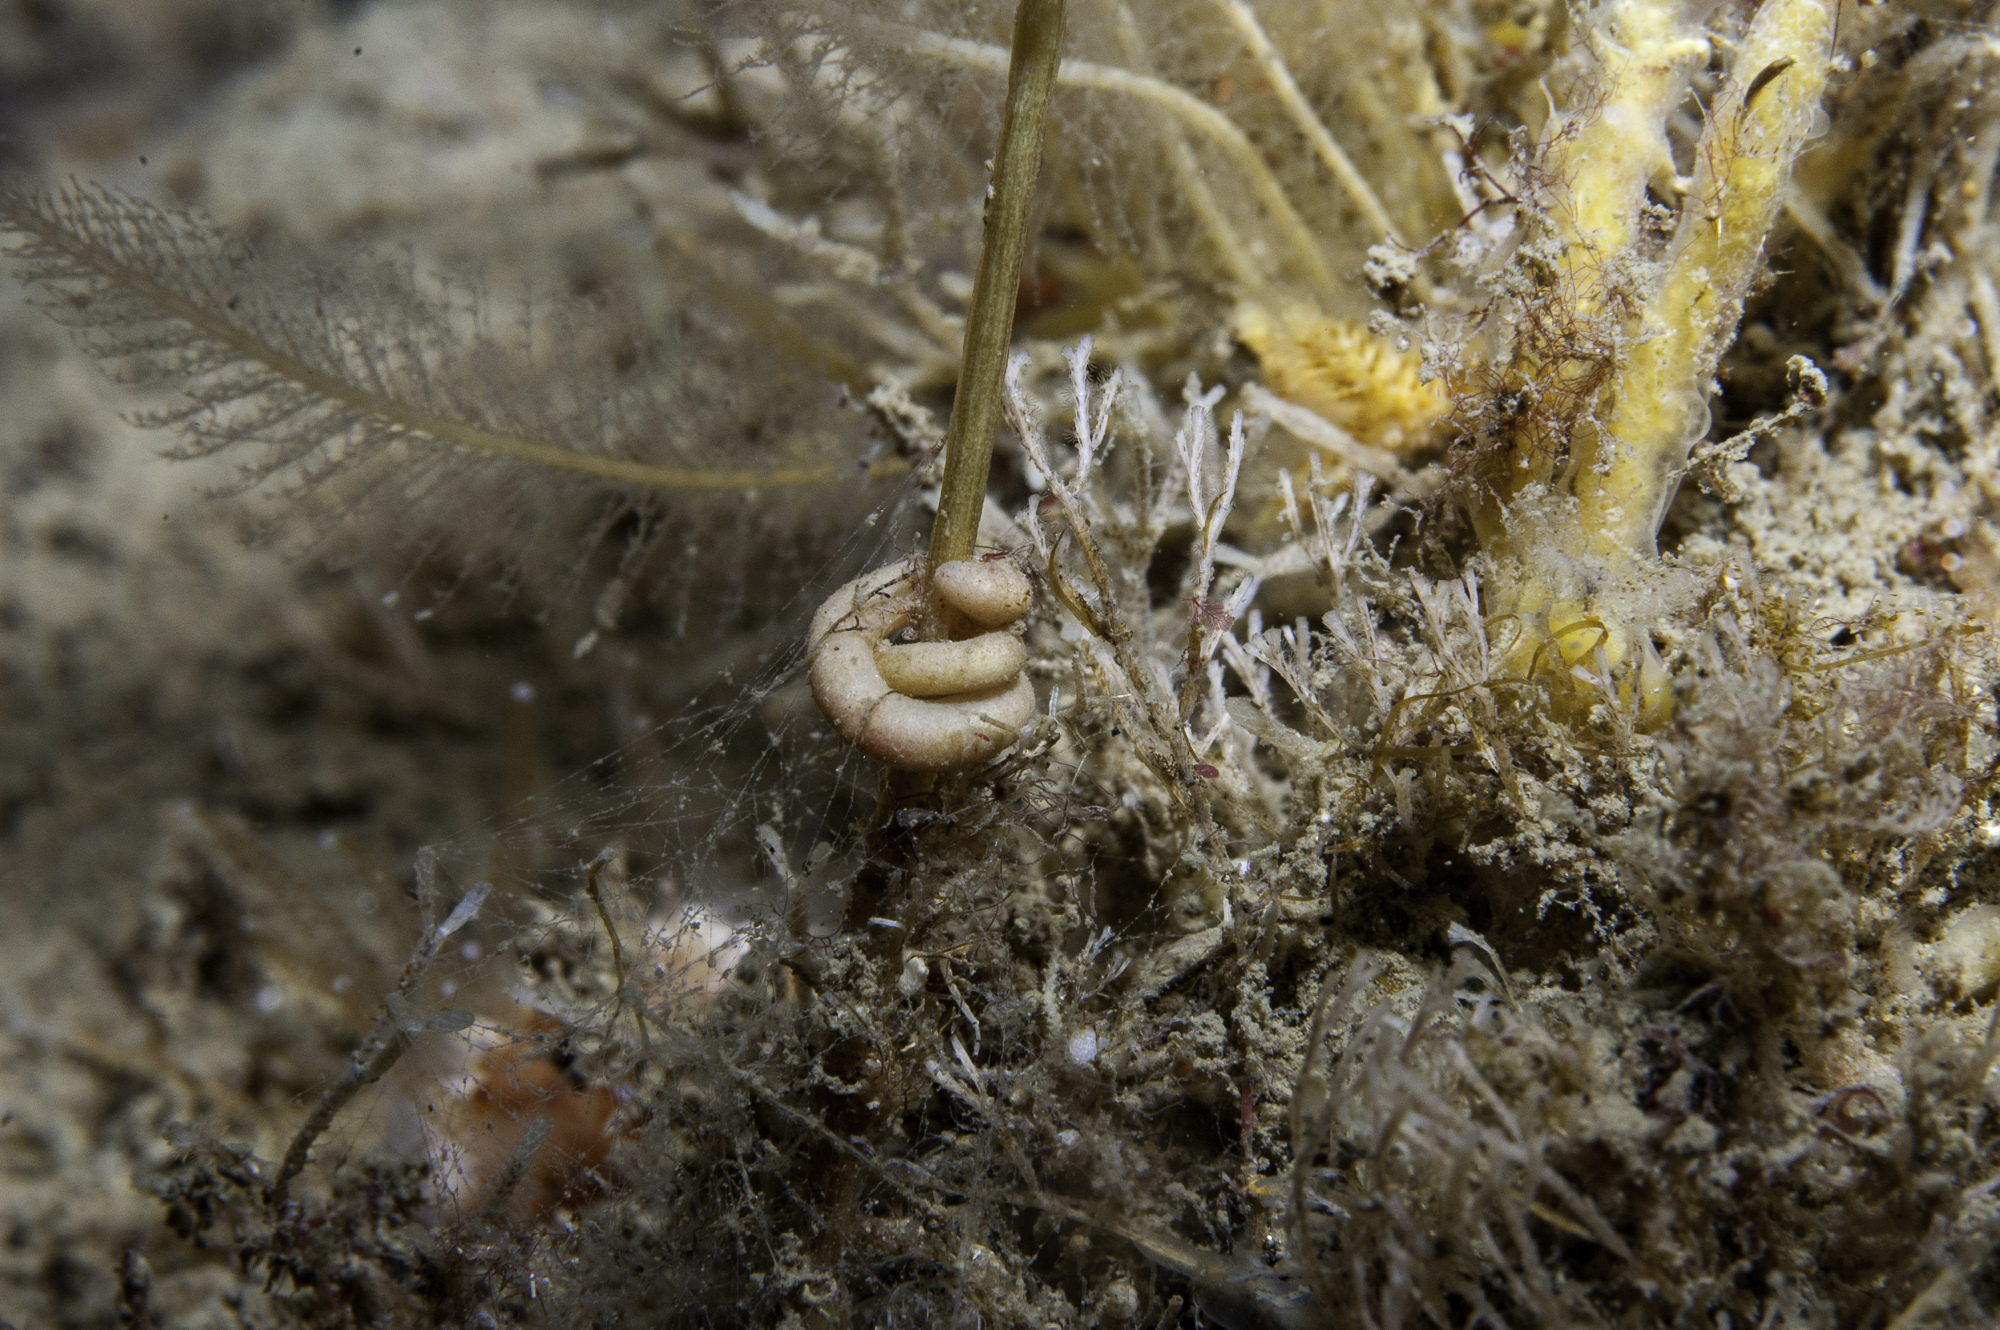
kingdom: Animalia
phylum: Mollusca
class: Solenogastres
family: Rhopalomeniidae
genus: Rhopalomenia
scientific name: Rhopalomenia aglaopheniae
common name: Parasitic solenogaster
